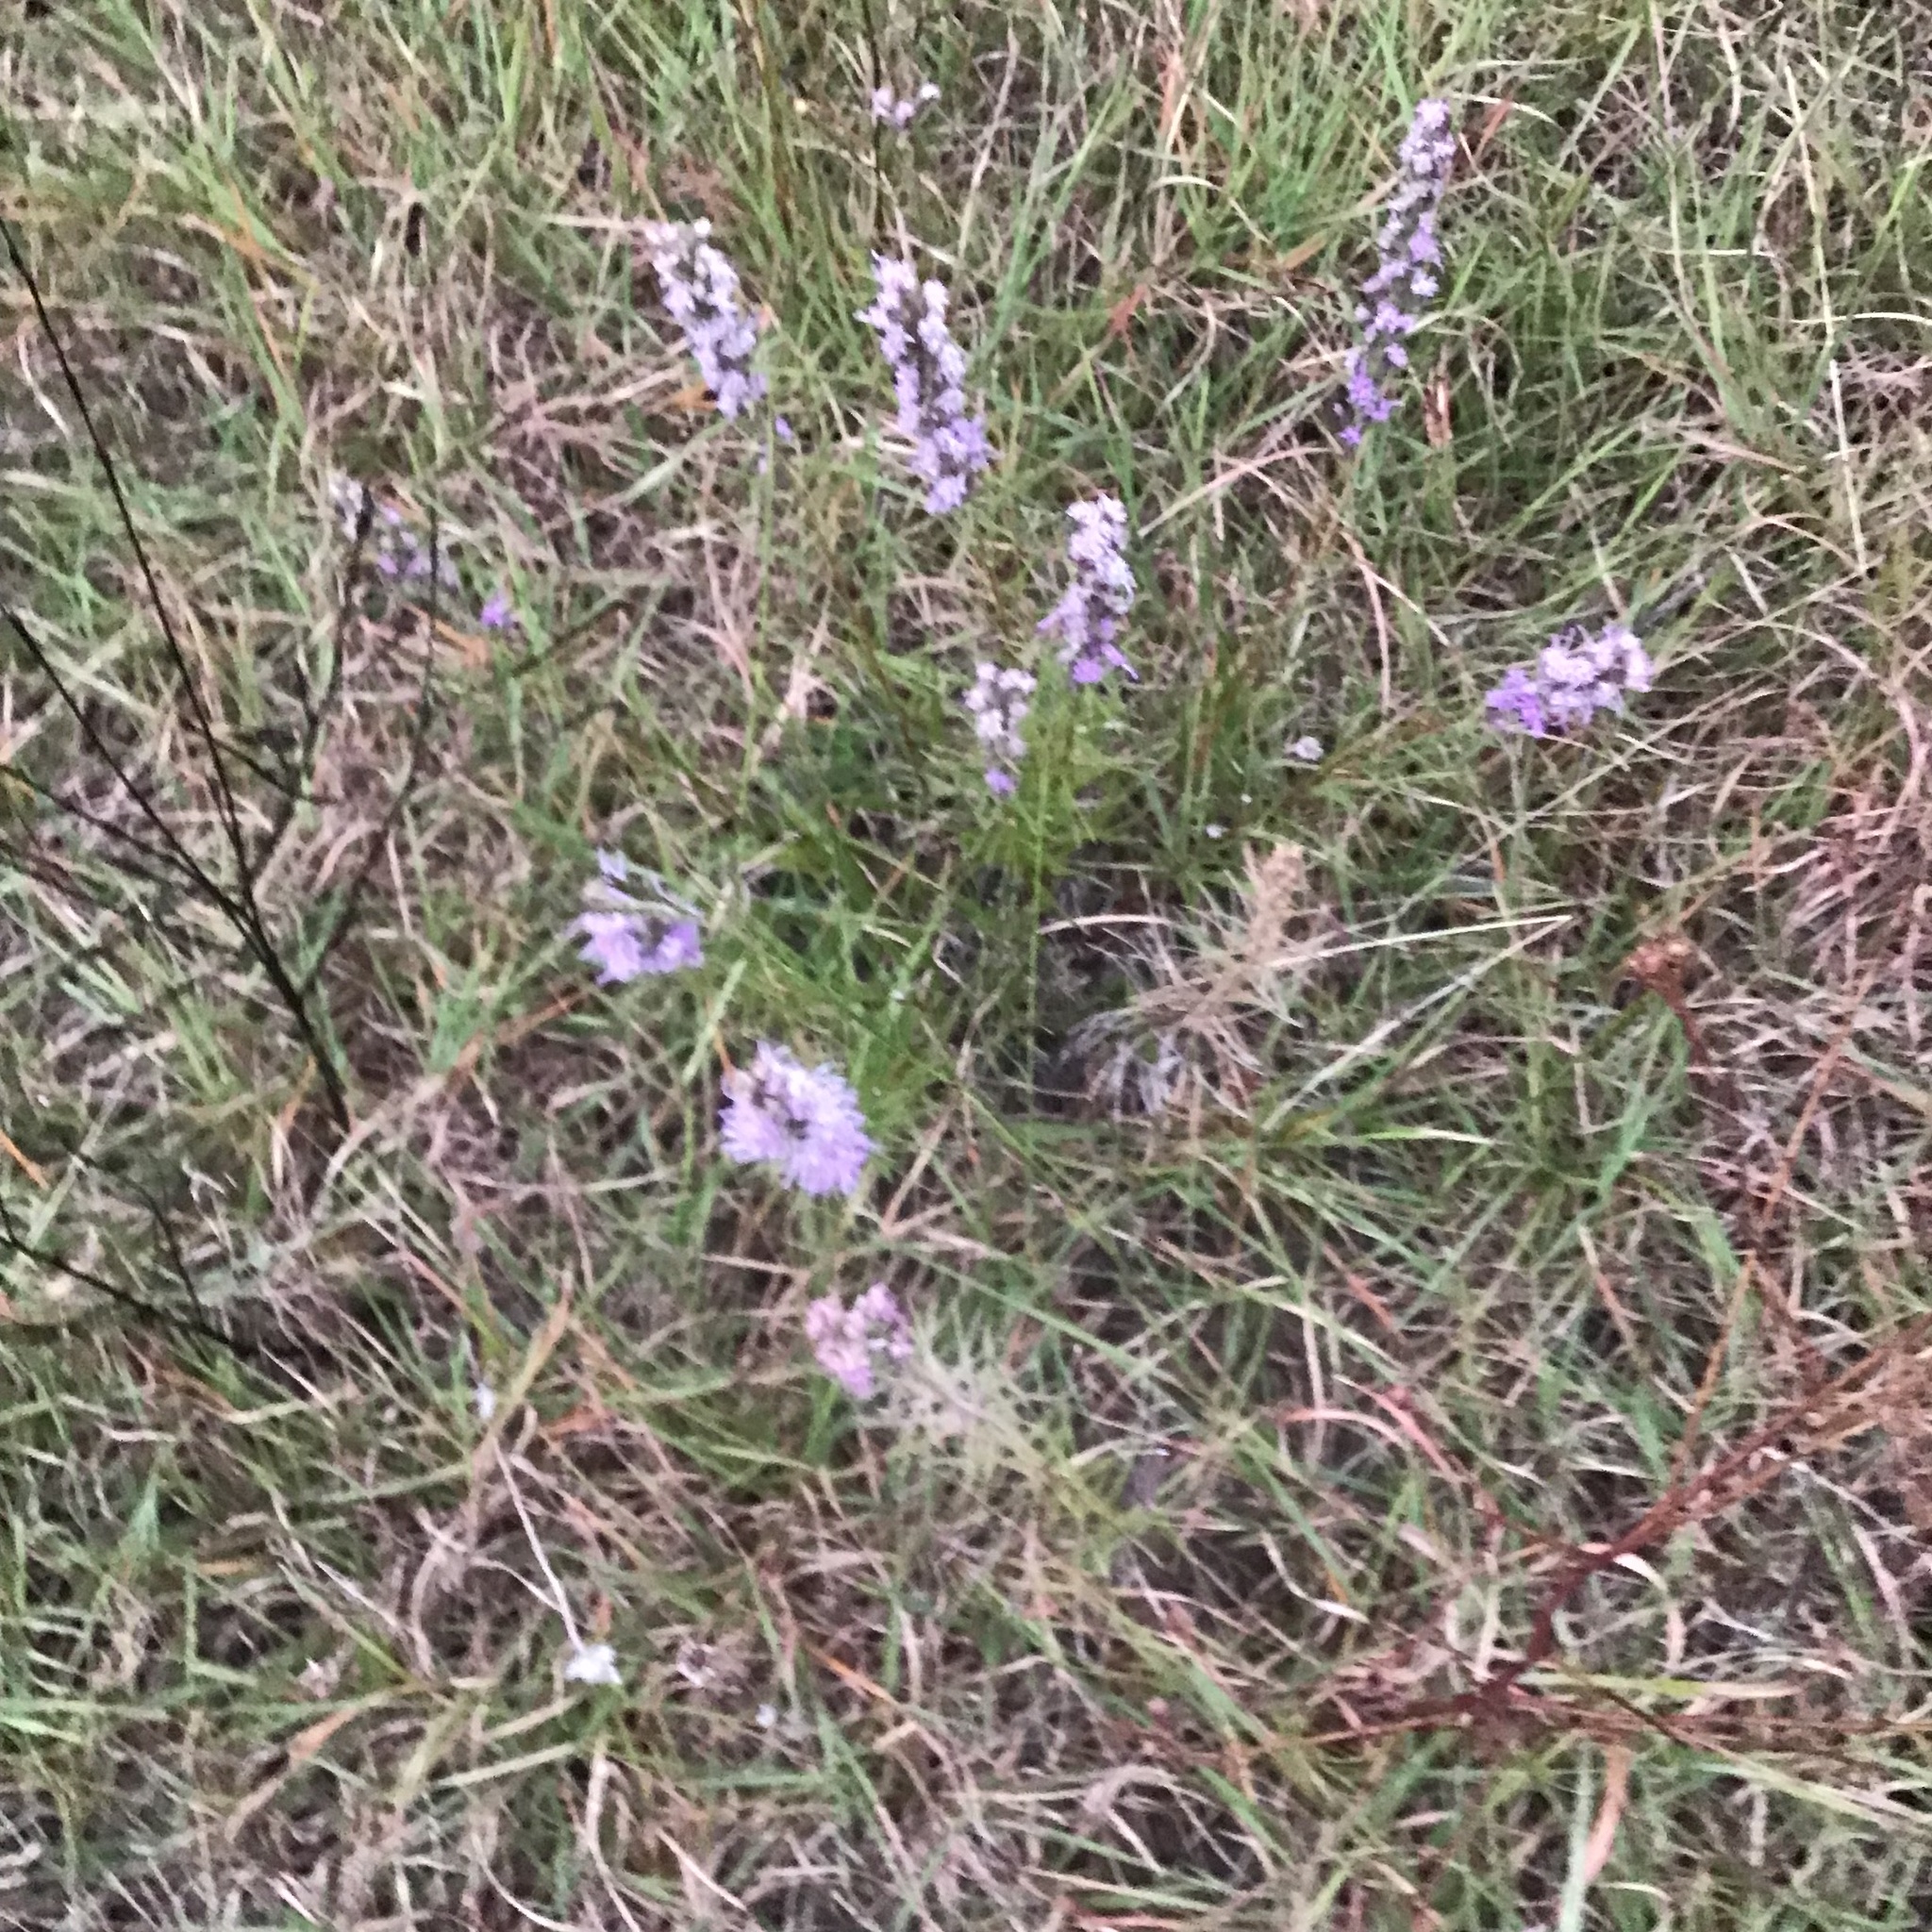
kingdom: Plantae
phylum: Tracheophyta
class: Magnoliopsida
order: Asterales
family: Asteraceae
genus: Liatris
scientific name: Liatris punctata
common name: Dotted gayfeather
